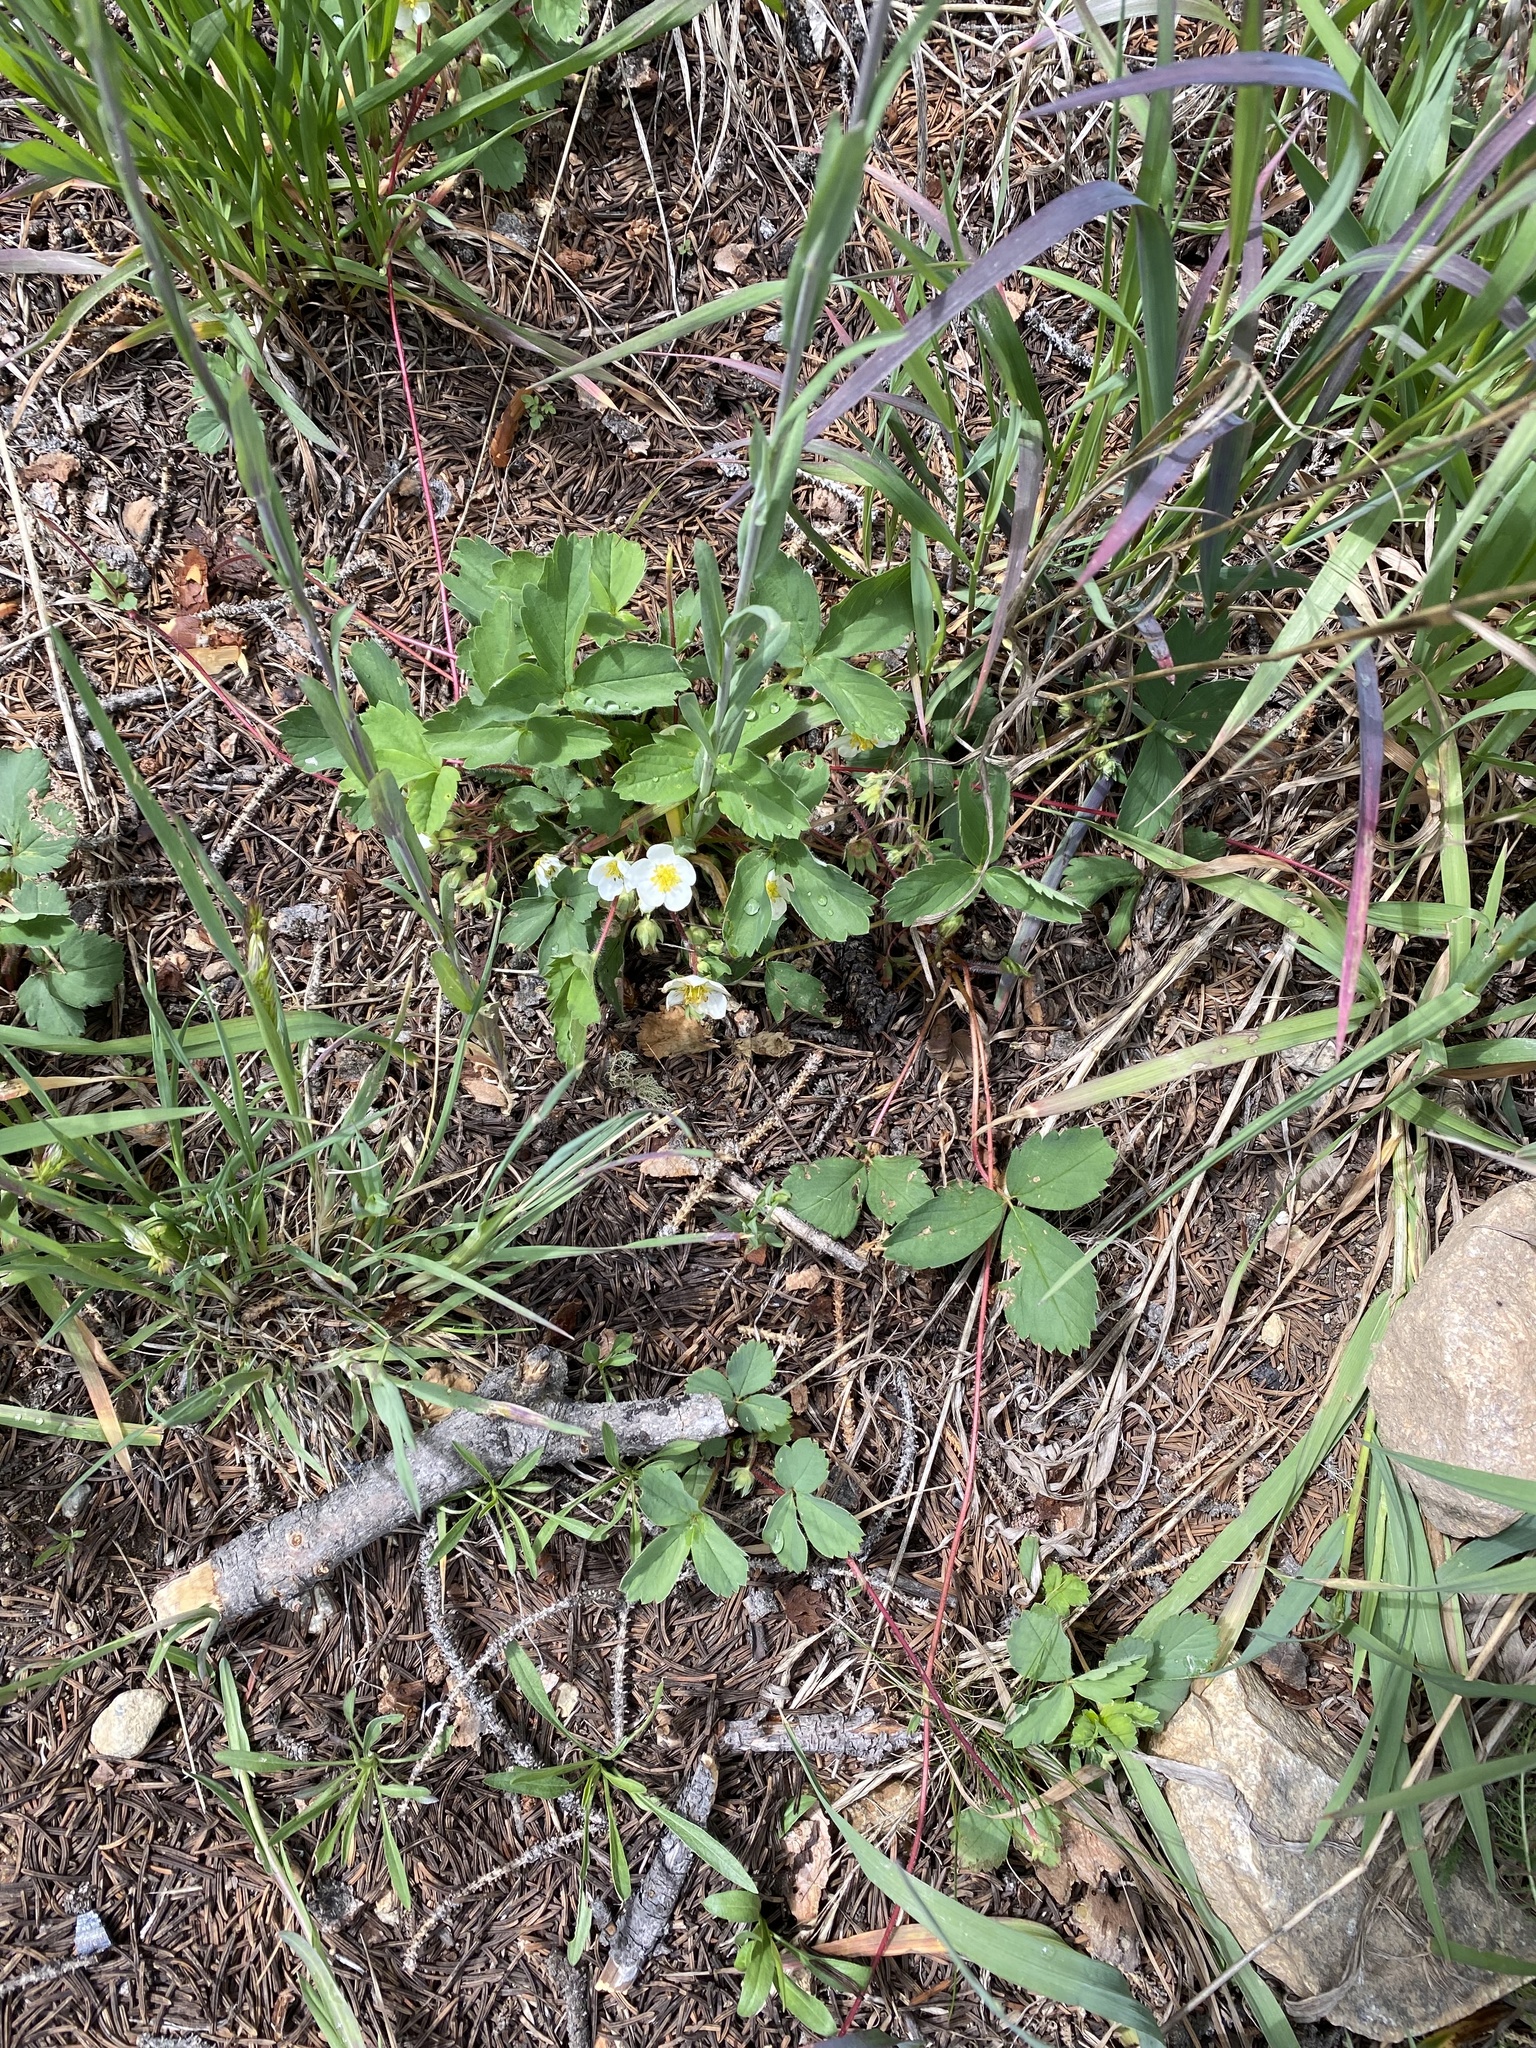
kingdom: Plantae
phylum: Tracheophyta
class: Magnoliopsida
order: Rosales
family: Rosaceae
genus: Fragaria
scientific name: Fragaria virginiana
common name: Thickleaved wild strawberry
